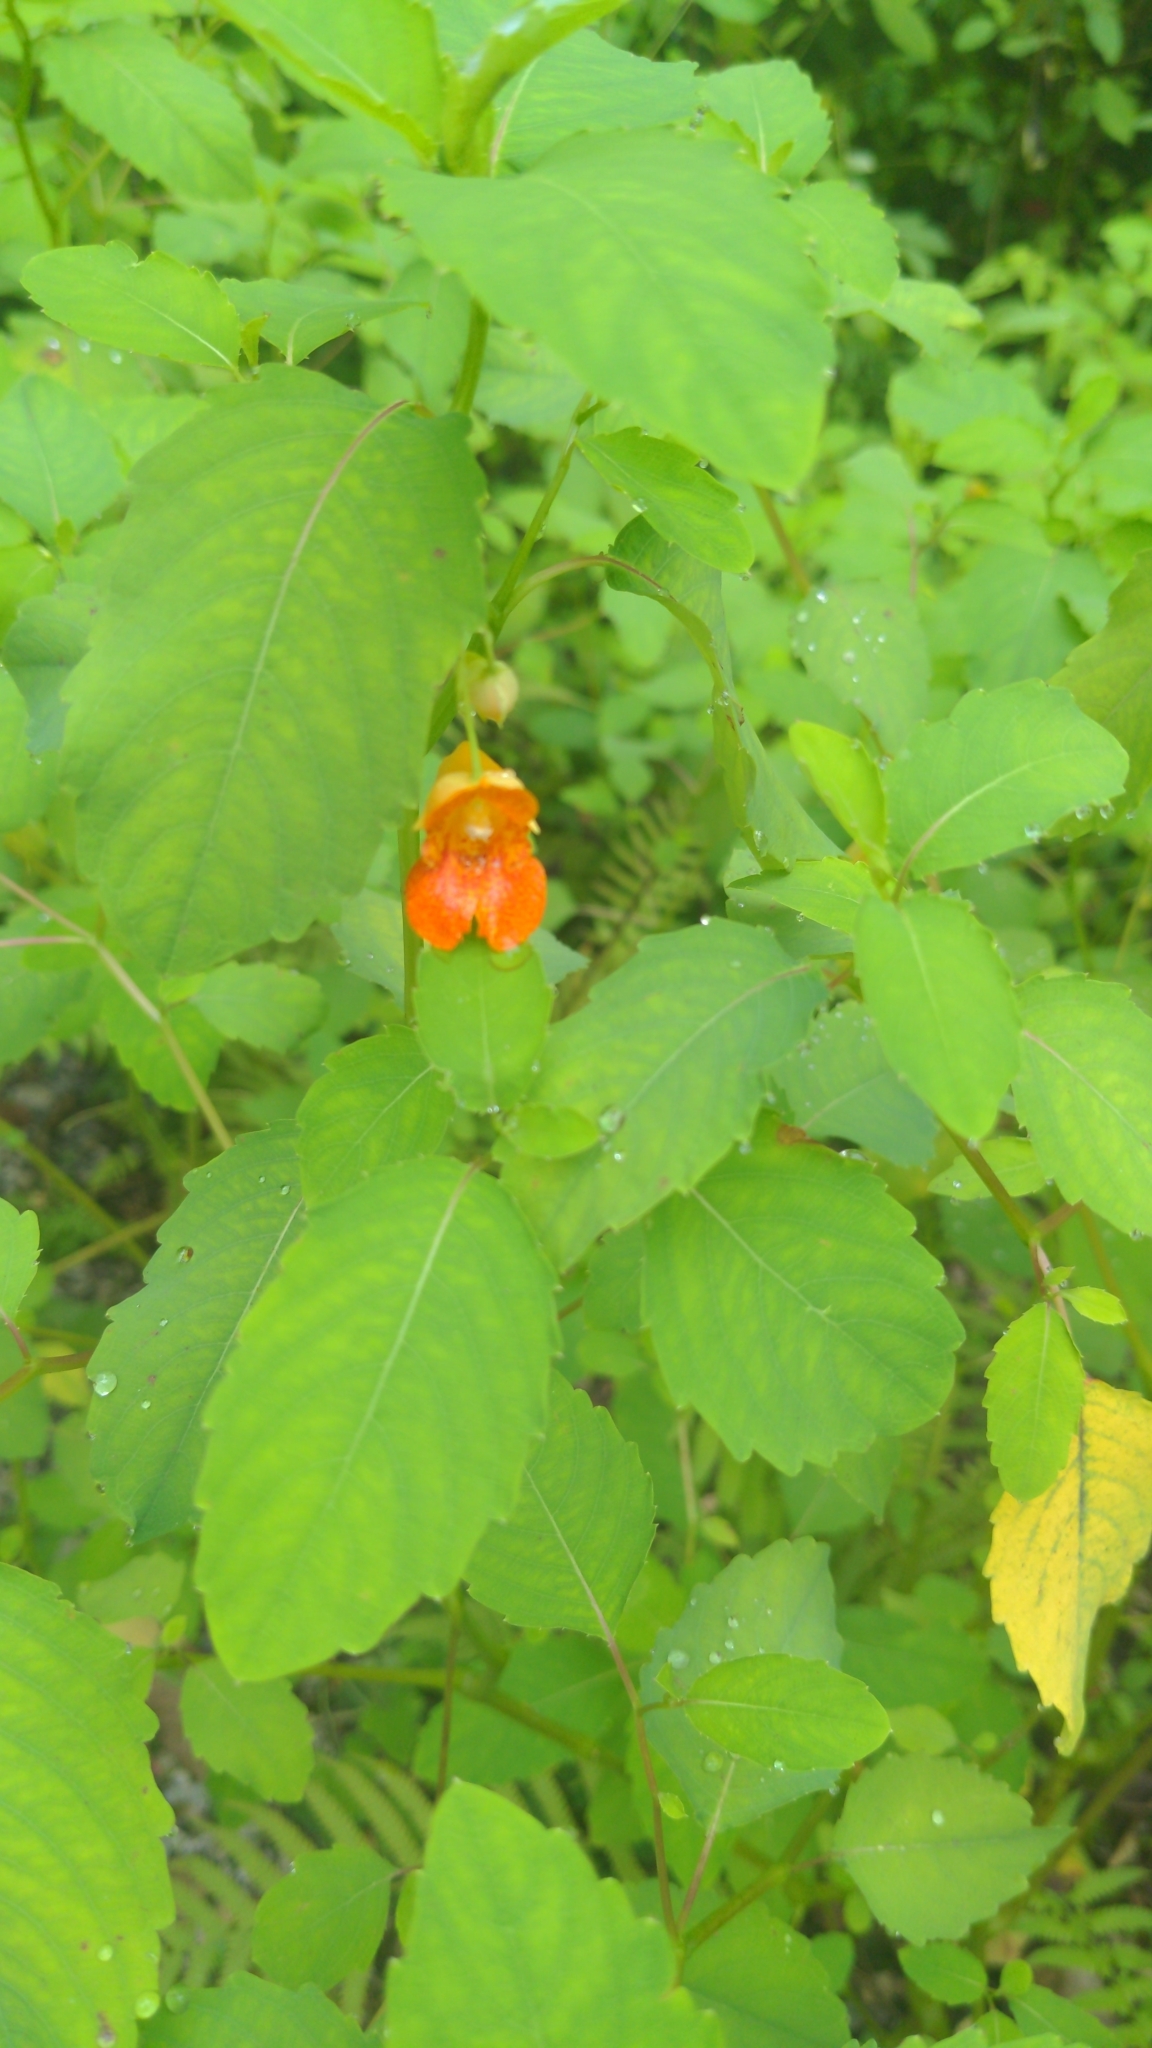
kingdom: Plantae
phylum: Tracheophyta
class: Magnoliopsida
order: Ericales
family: Balsaminaceae
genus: Impatiens
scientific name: Impatiens capensis
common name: Orange balsam
